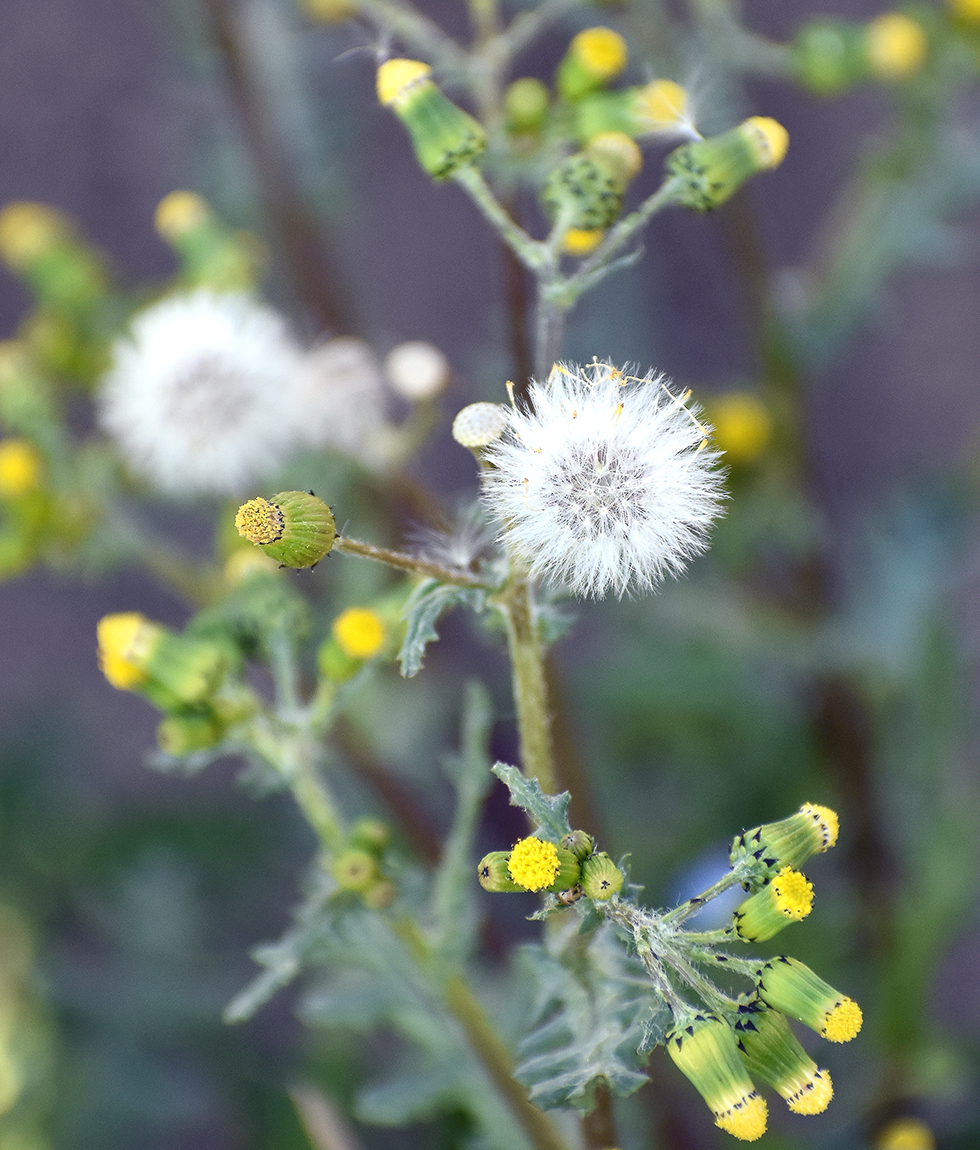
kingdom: Plantae
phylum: Tracheophyta
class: Magnoliopsida
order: Asterales
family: Asteraceae
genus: Senecio
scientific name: Senecio vulgaris
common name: Old-man-in-the-spring
